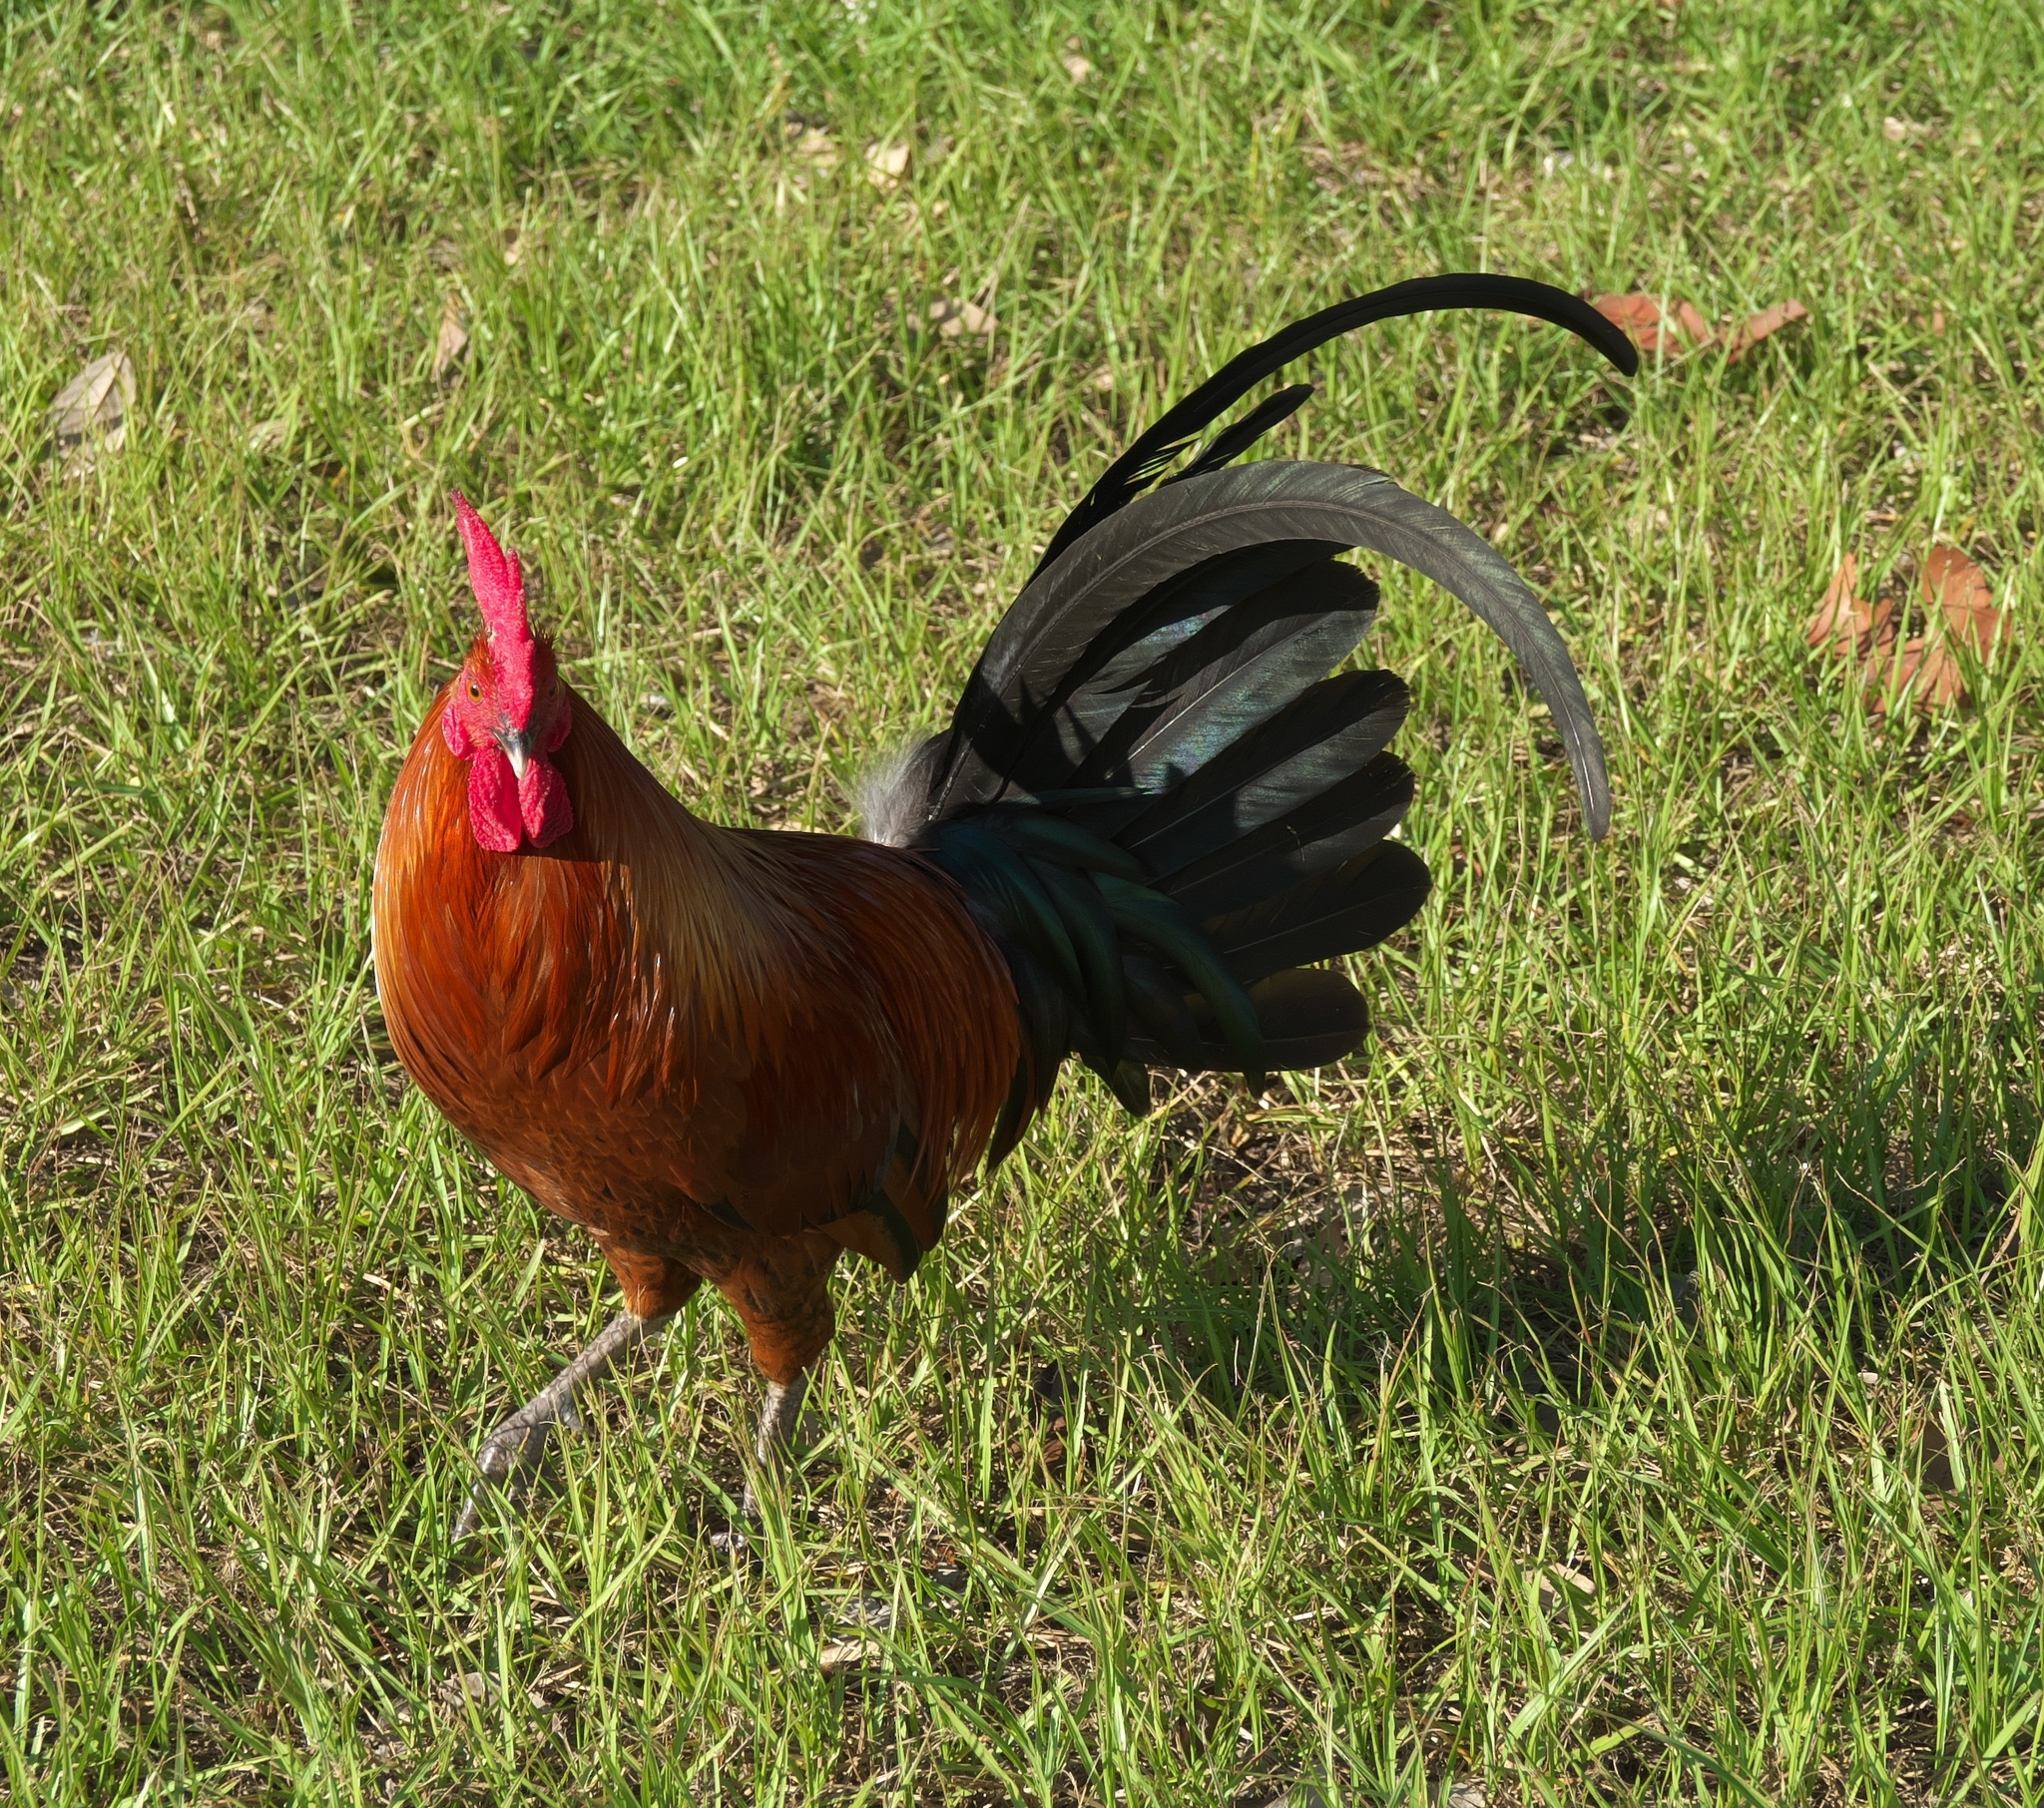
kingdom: Animalia
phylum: Chordata
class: Aves
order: Galliformes
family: Phasianidae
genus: Gallus
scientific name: Gallus gallus
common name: Red junglefowl
